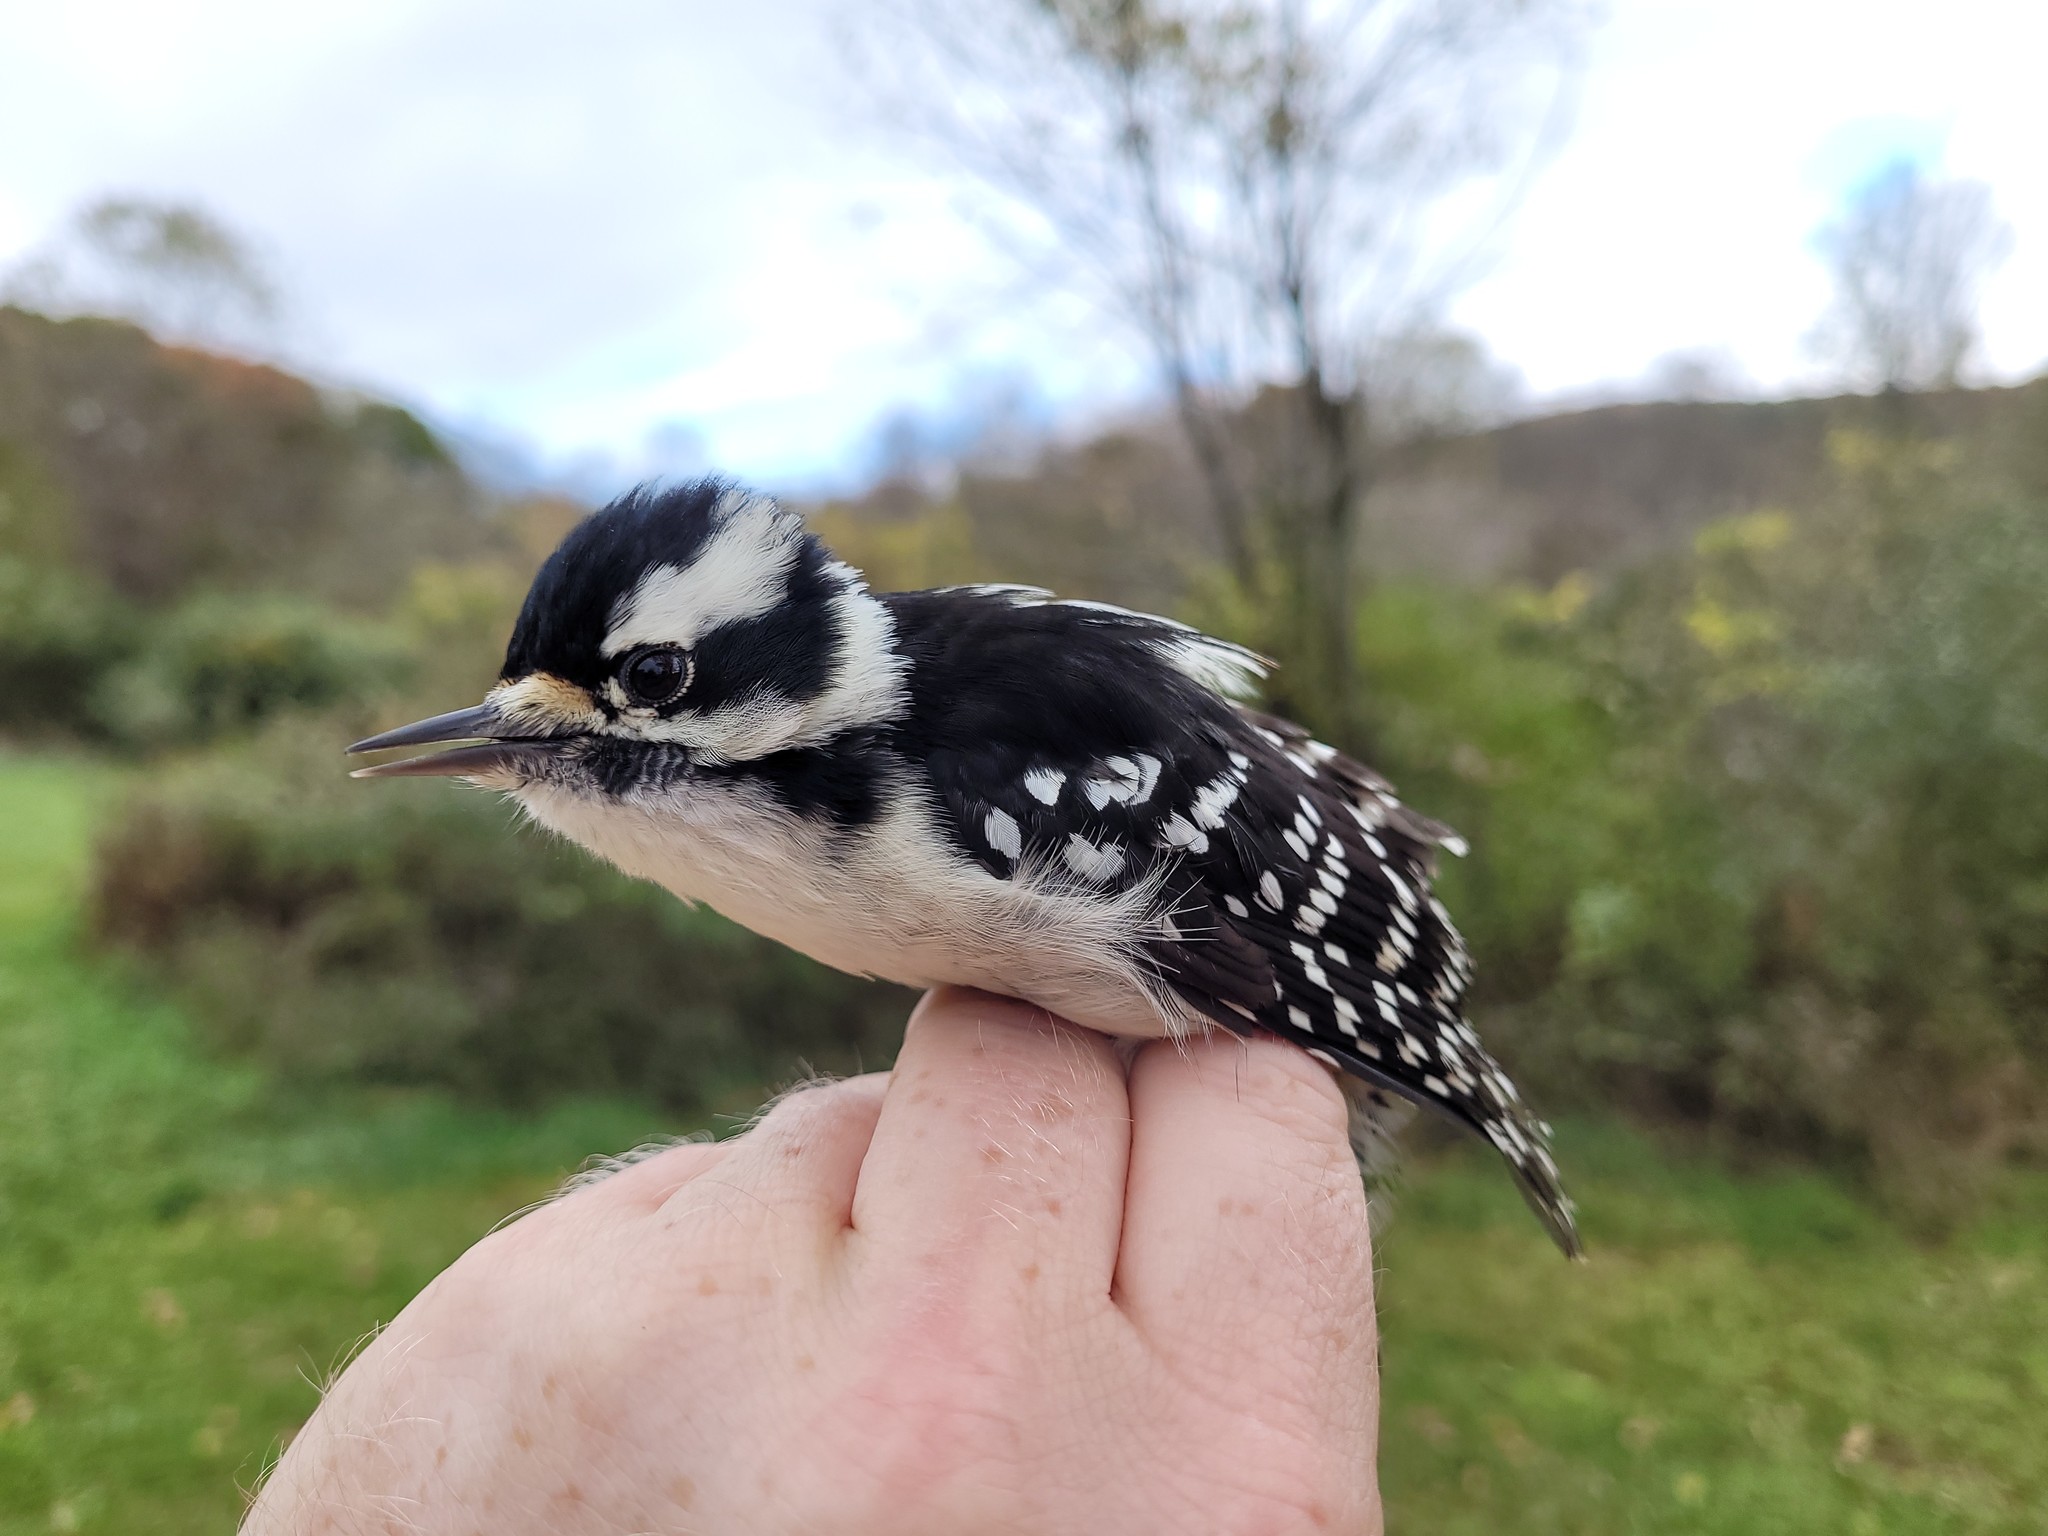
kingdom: Animalia
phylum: Chordata
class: Aves
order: Piciformes
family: Picidae
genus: Dryobates
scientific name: Dryobates pubescens
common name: Downy woodpecker
